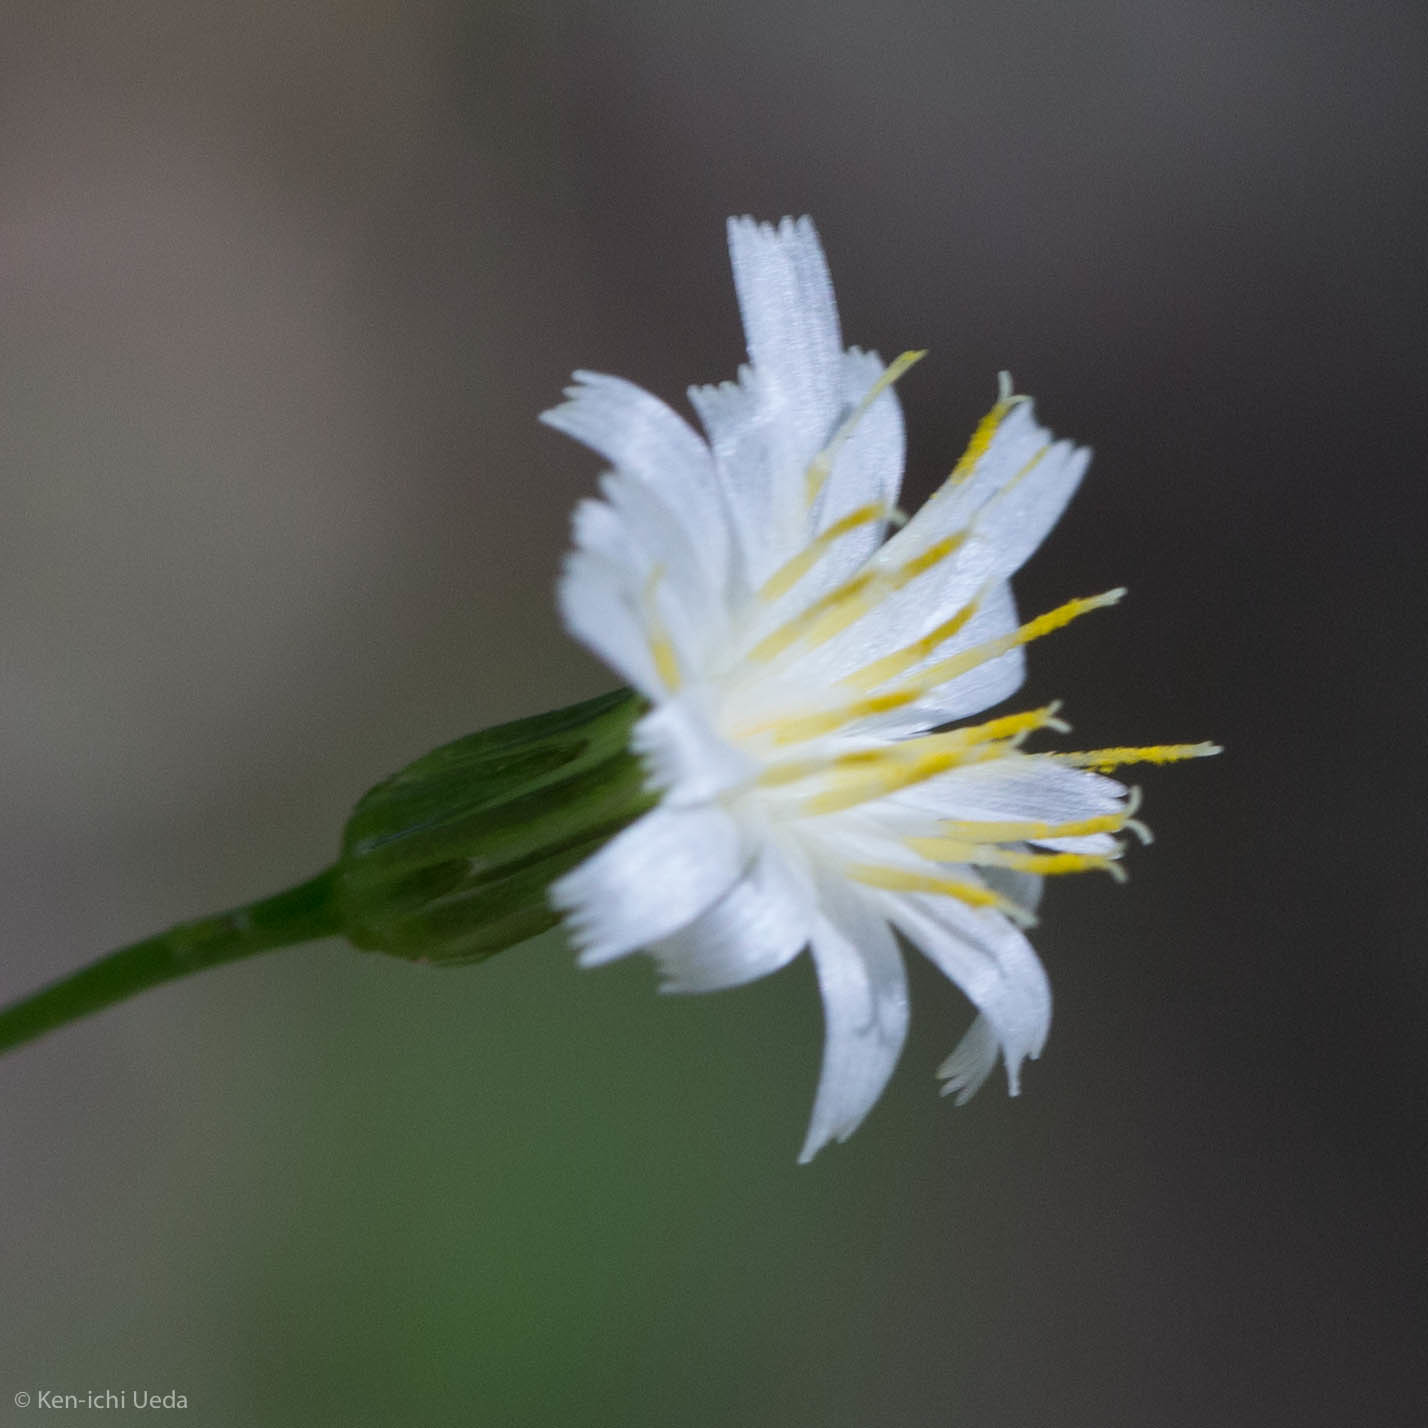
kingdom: Plantae
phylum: Tracheophyta
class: Magnoliopsida
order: Asterales
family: Asteraceae
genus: Hieracium
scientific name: Hieracium albiflorum
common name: White hawkweed
